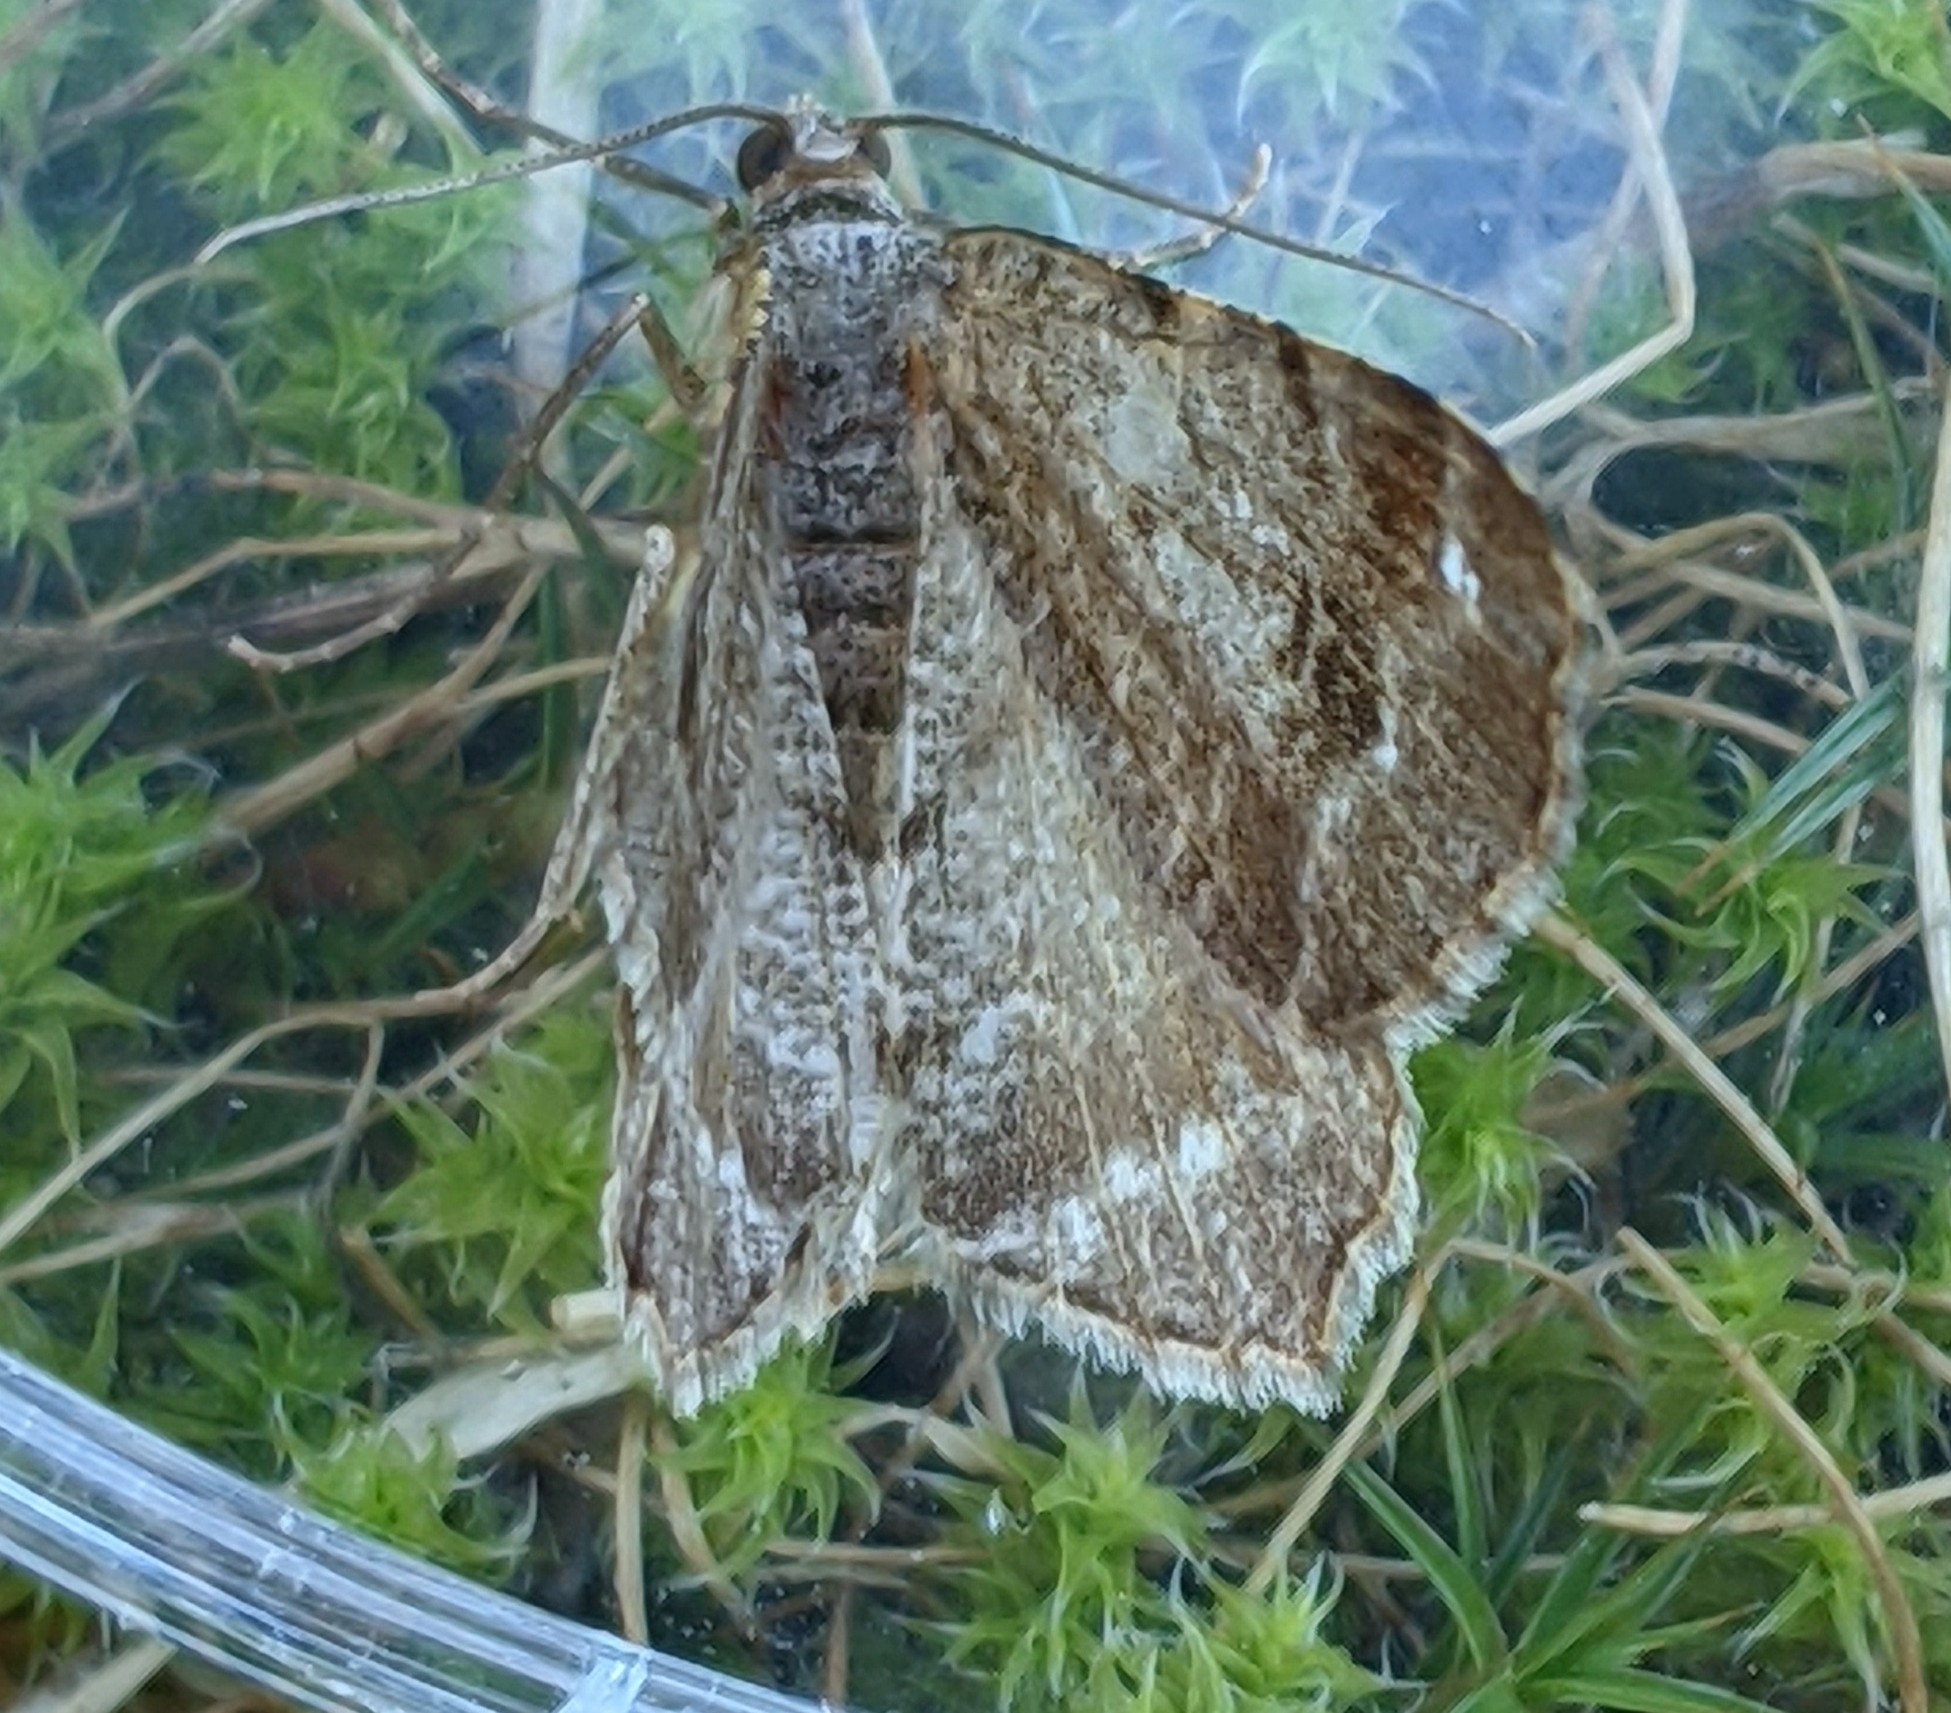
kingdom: Animalia
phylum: Arthropoda
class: Insecta
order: Lepidoptera
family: Geometridae
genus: Macaria
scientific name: Macaria signaria
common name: Dusky peacock
